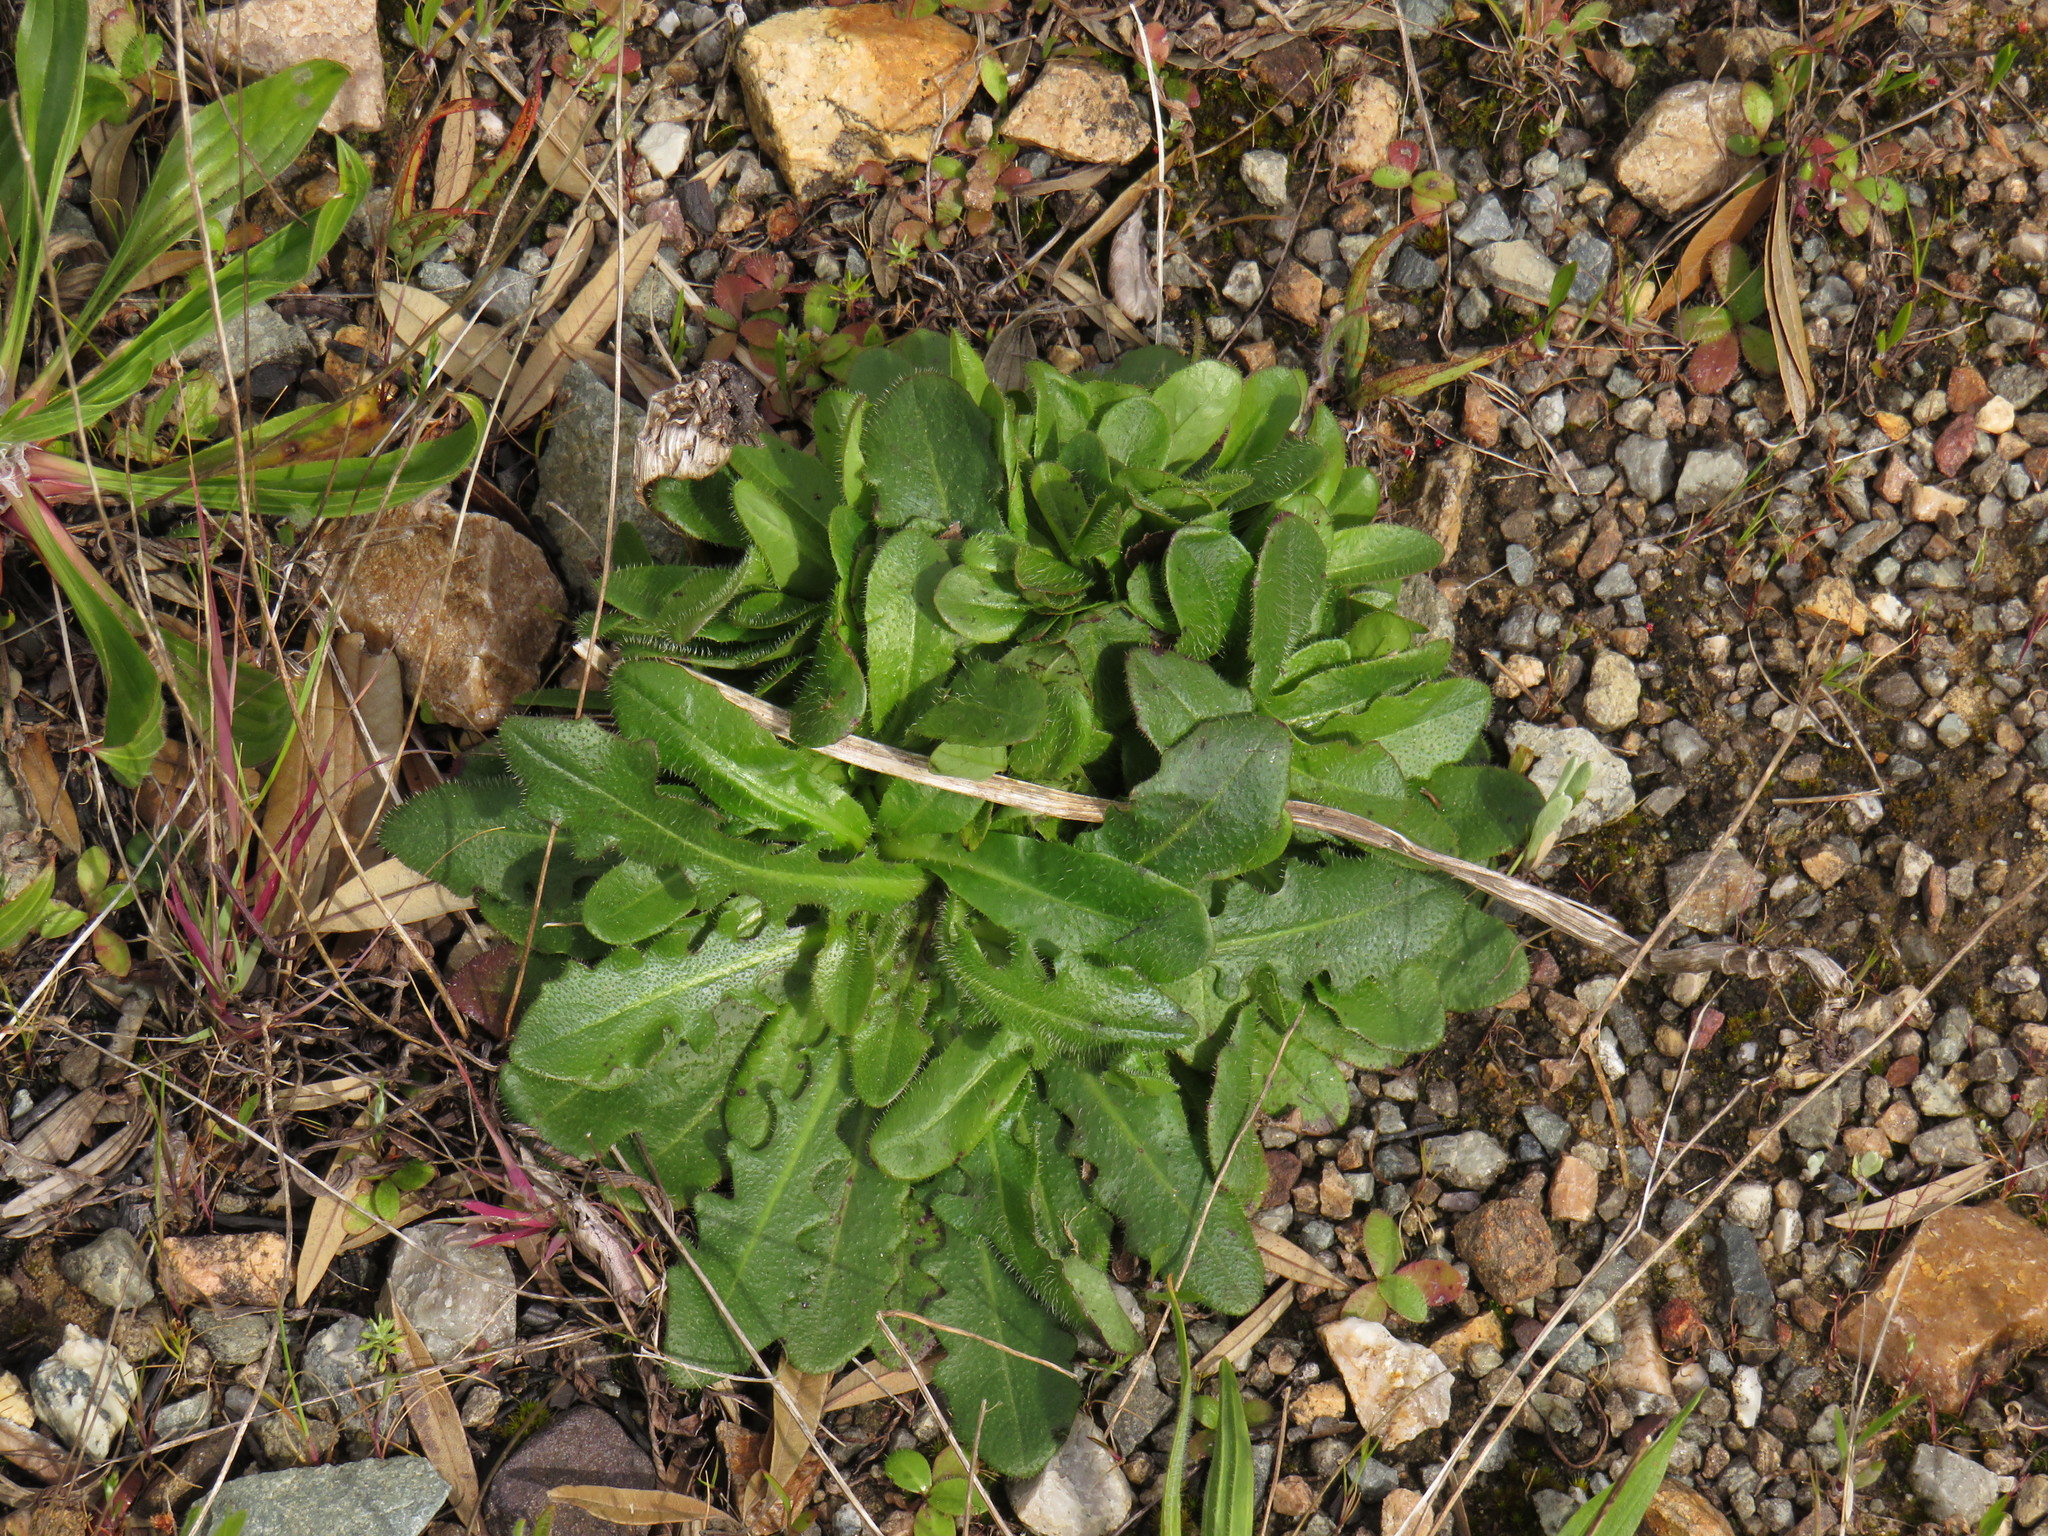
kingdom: Plantae
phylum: Tracheophyta
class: Magnoliopsida
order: Asterales
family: Asteraceae
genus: Hypochaeris
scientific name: Hypochaeris radicata
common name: Flatweed
